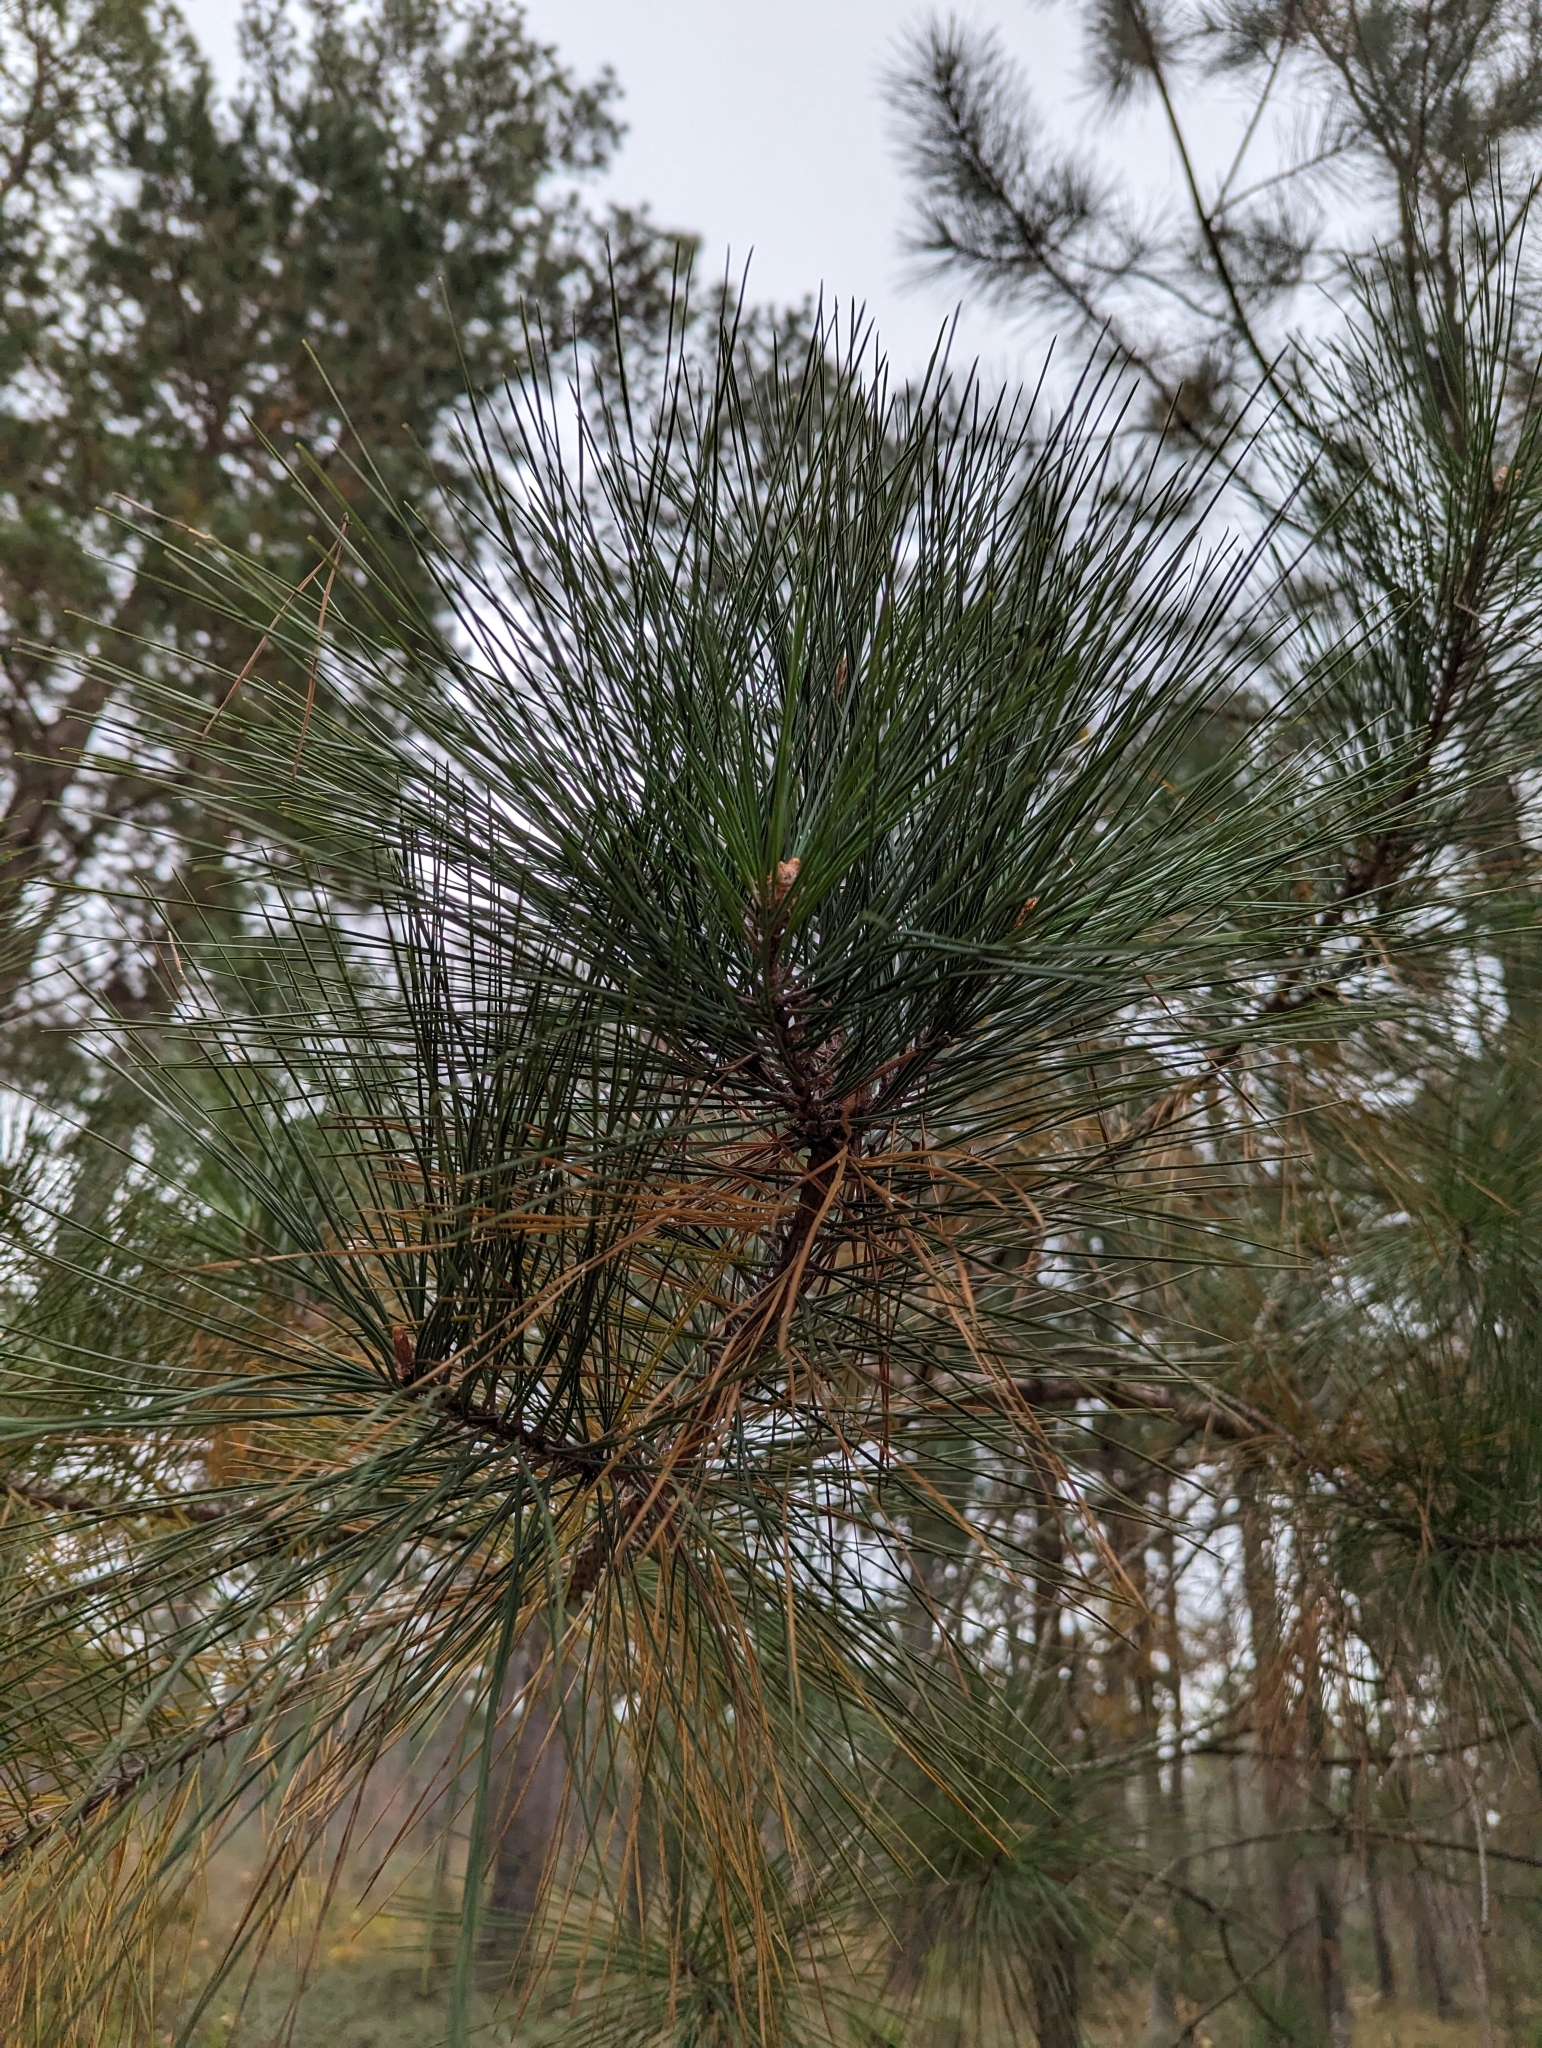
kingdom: Plantae
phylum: Tracheophyta
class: Pinopsida
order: Pinales
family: Pinaceae
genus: Pinus
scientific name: Pinus taeda
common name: Loblolly pine
